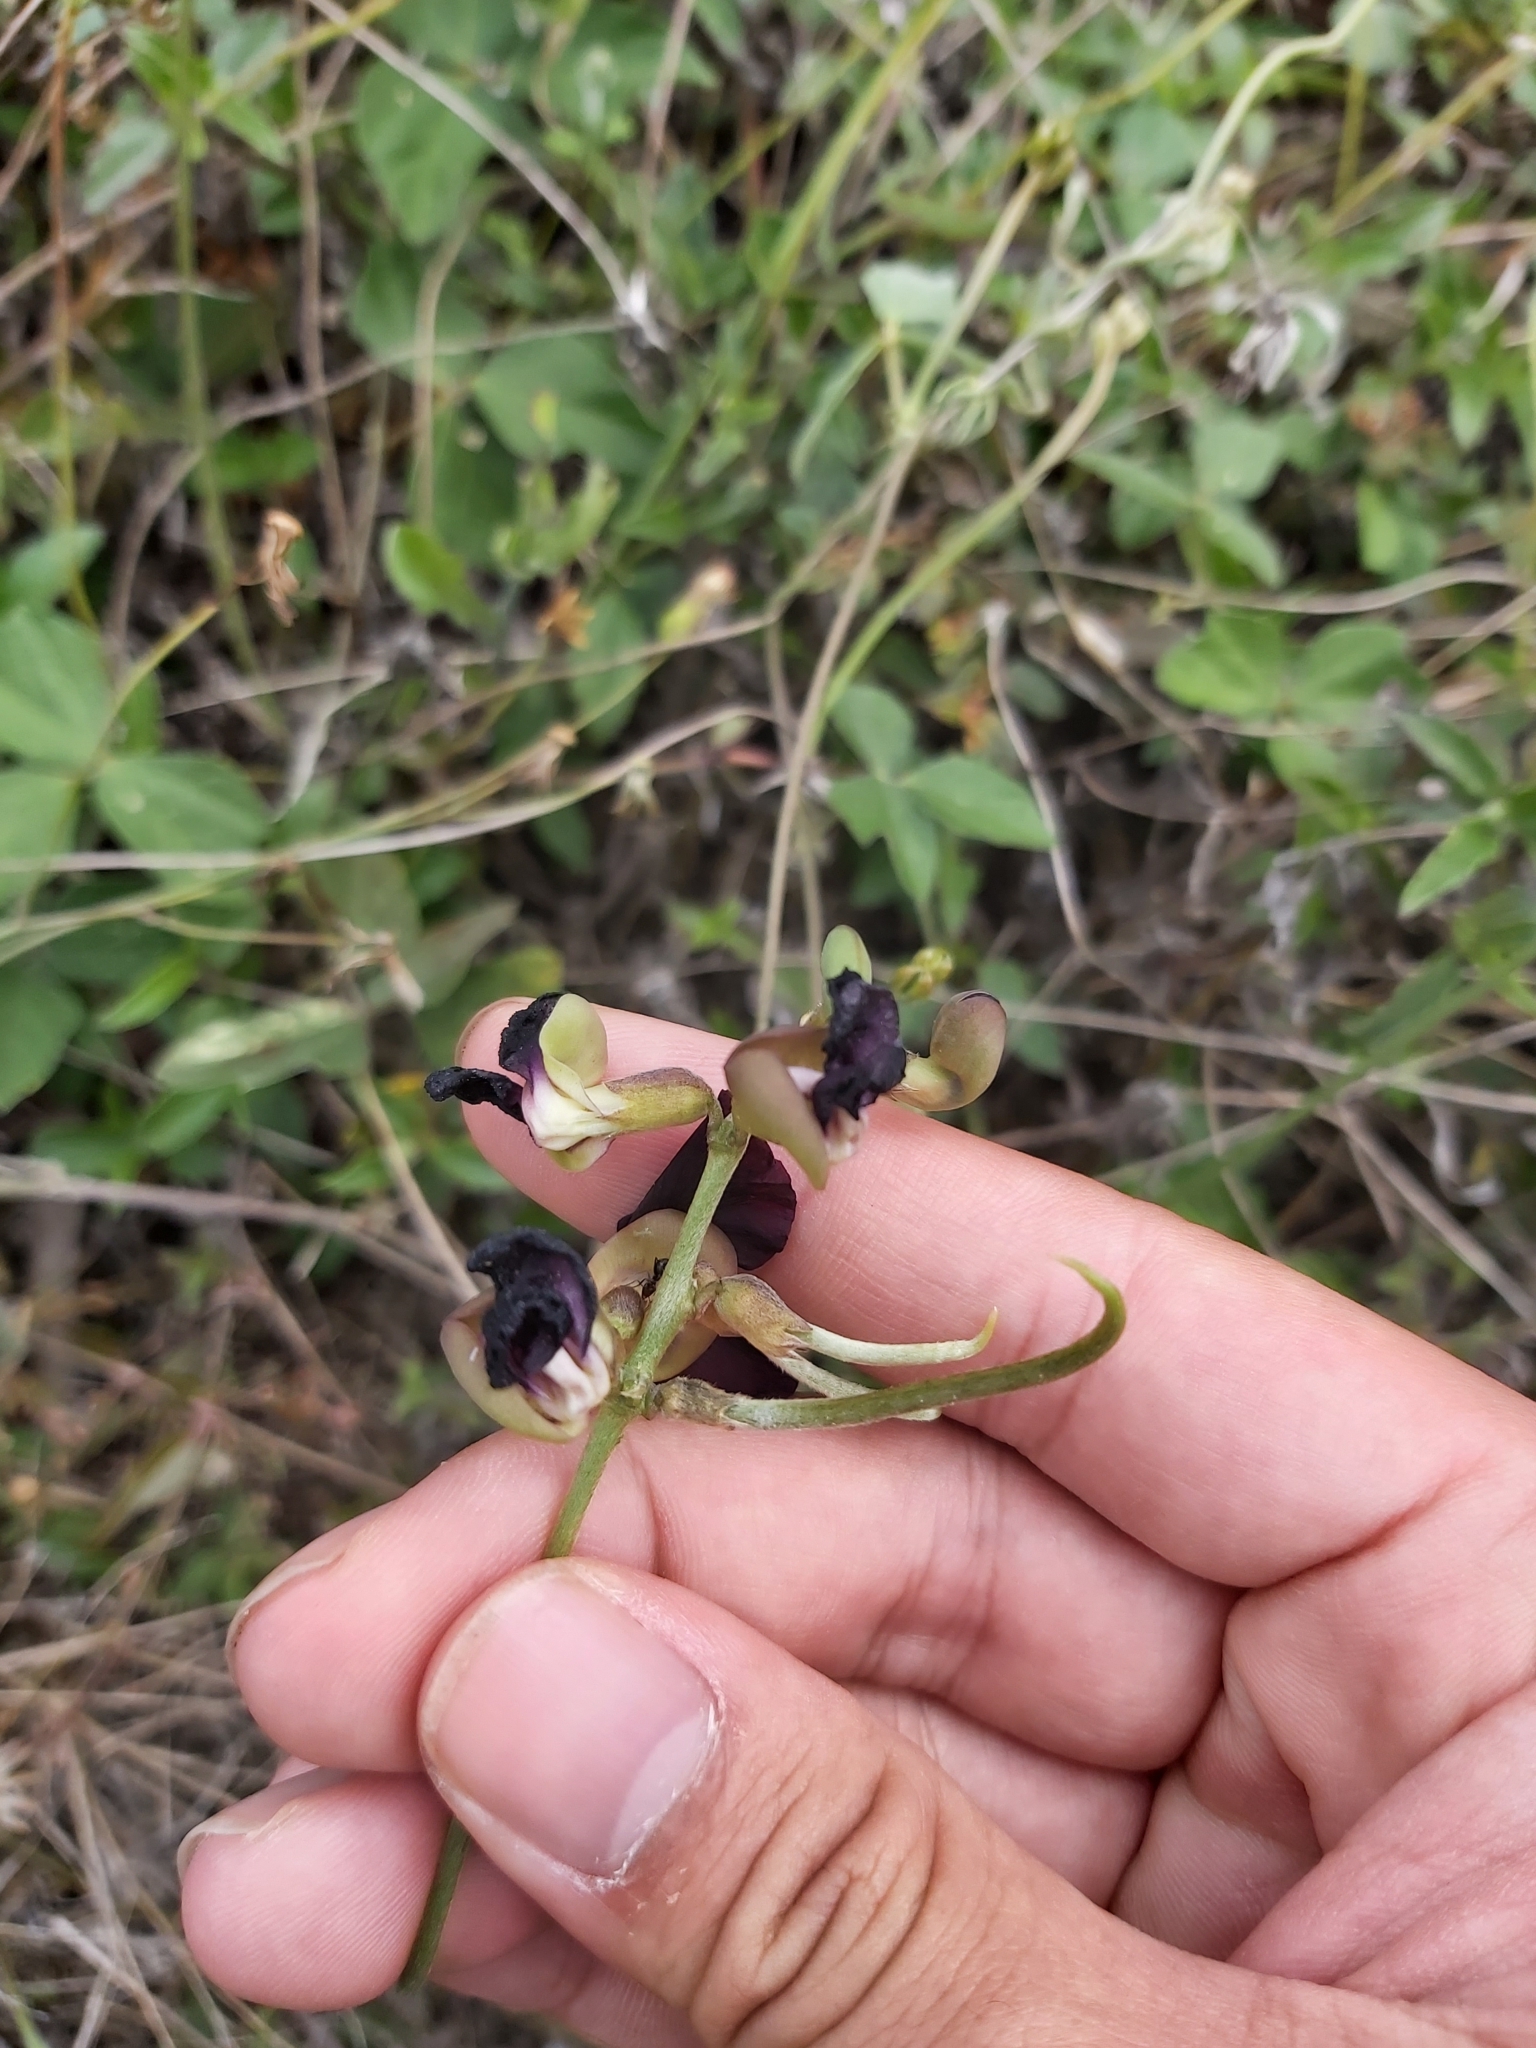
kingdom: Plantae
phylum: Tracheophyta
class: Magnoliopsida
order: Fabales
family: Fabaceae
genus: Macroptilium
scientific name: Macroptilium atropurpureum
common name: Purple bushbean
